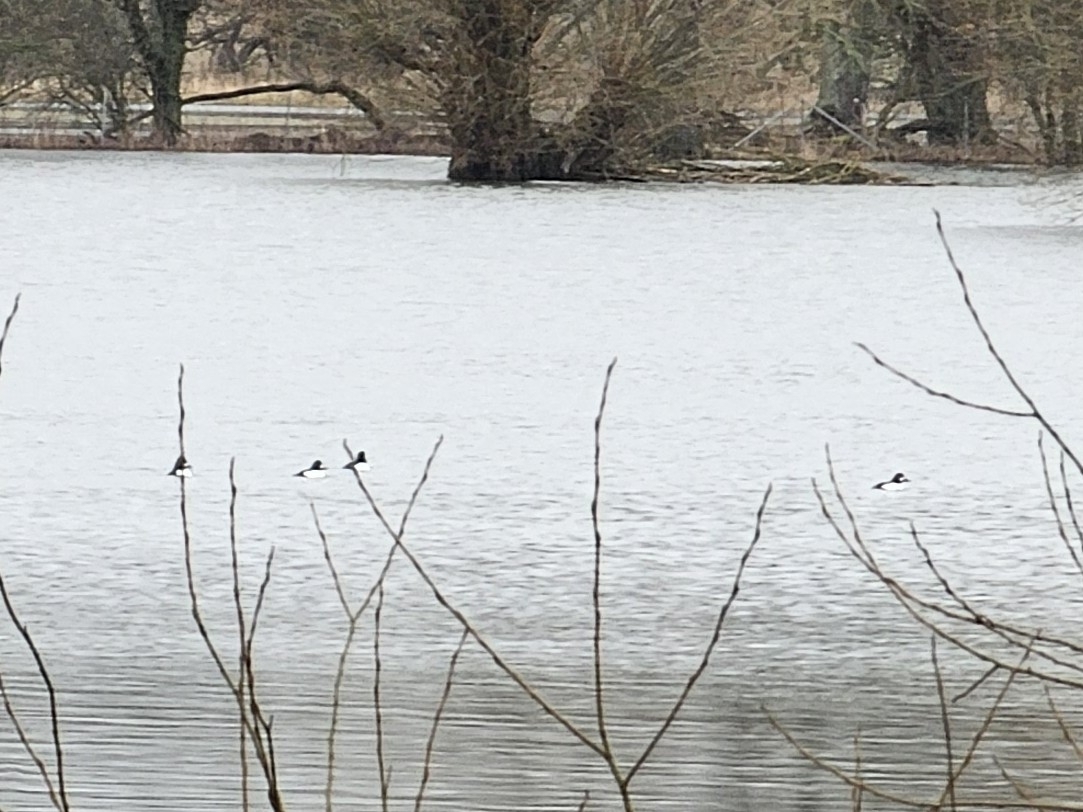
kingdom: Animalia
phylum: Chordata
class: Aves
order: Anseriformes
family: Anatidae
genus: Bucephala
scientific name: Bucephala clangula
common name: Common goldeneye
